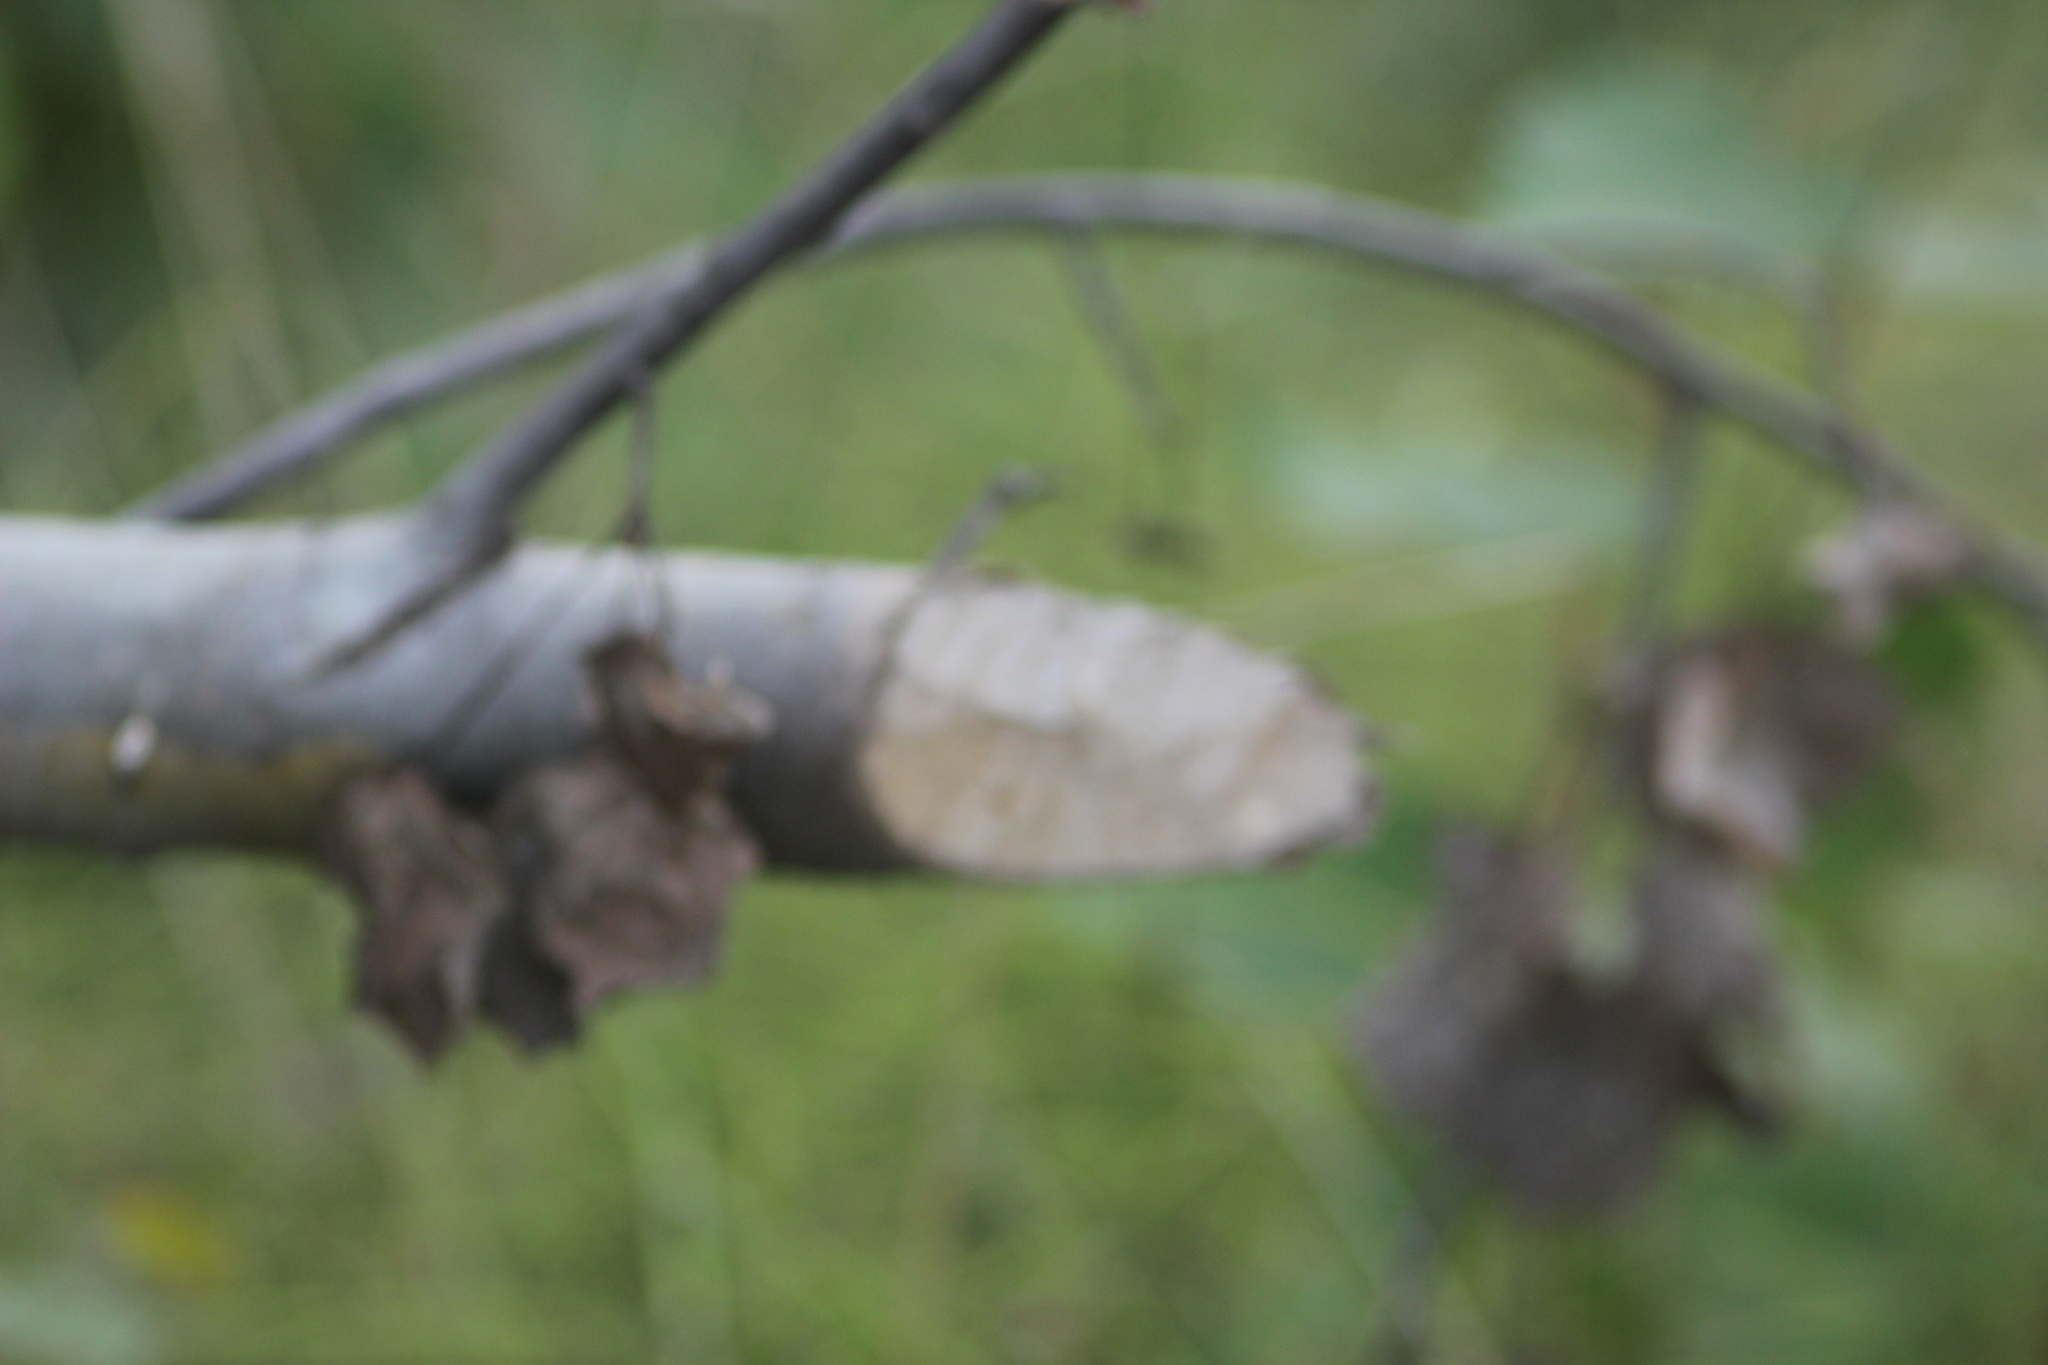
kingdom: Animalia
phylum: Chordata
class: Mammalia
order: Rodentia
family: Castoridae
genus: Castor
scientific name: Castor fiber
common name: Eurasian beaver
